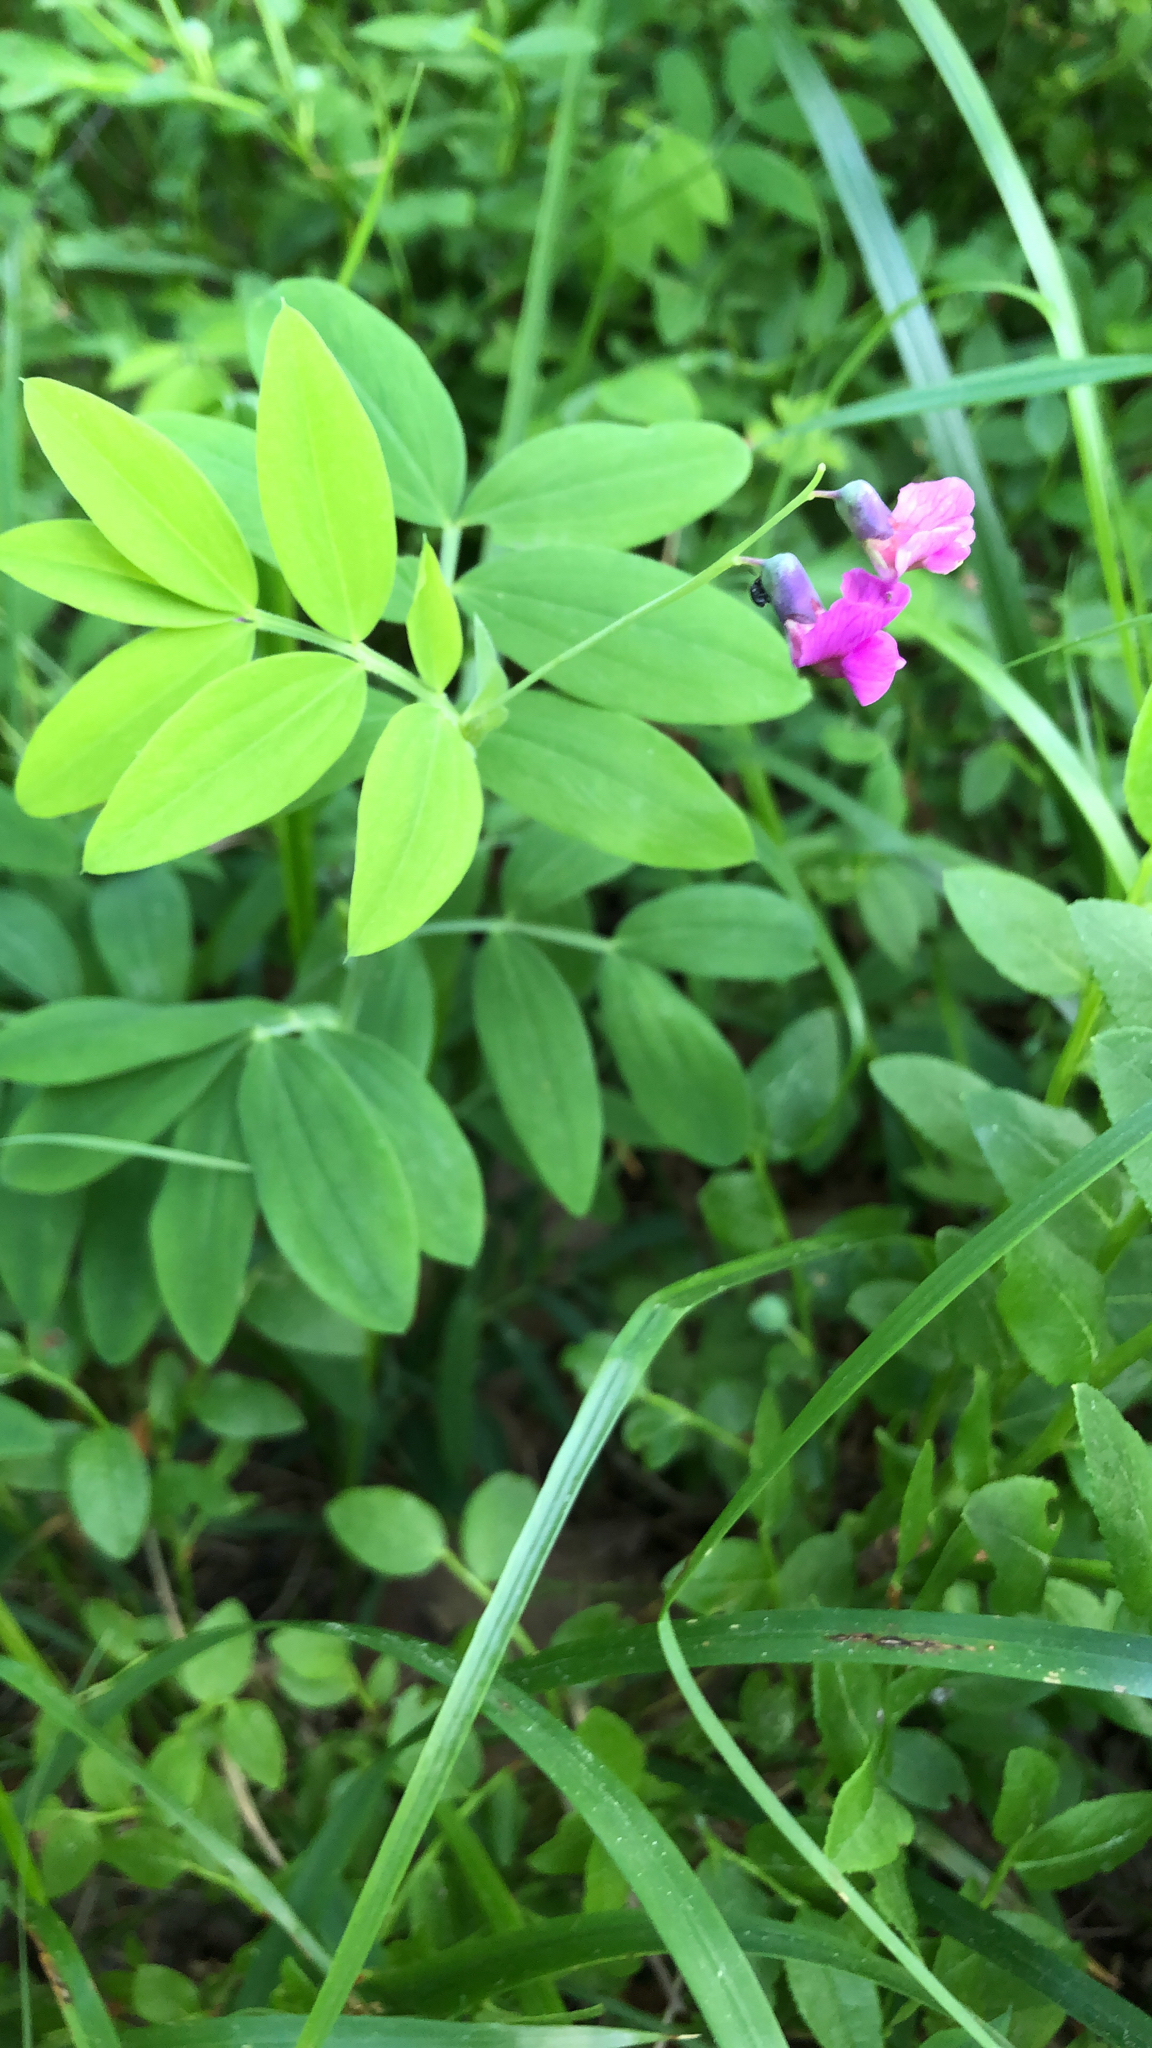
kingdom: Plantae
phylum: Tracheophyta
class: Magnoliopsida
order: Fabales
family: Fabaceae
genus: Lathyrus
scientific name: Lathyrus linifolius
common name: Bitter-vetch
